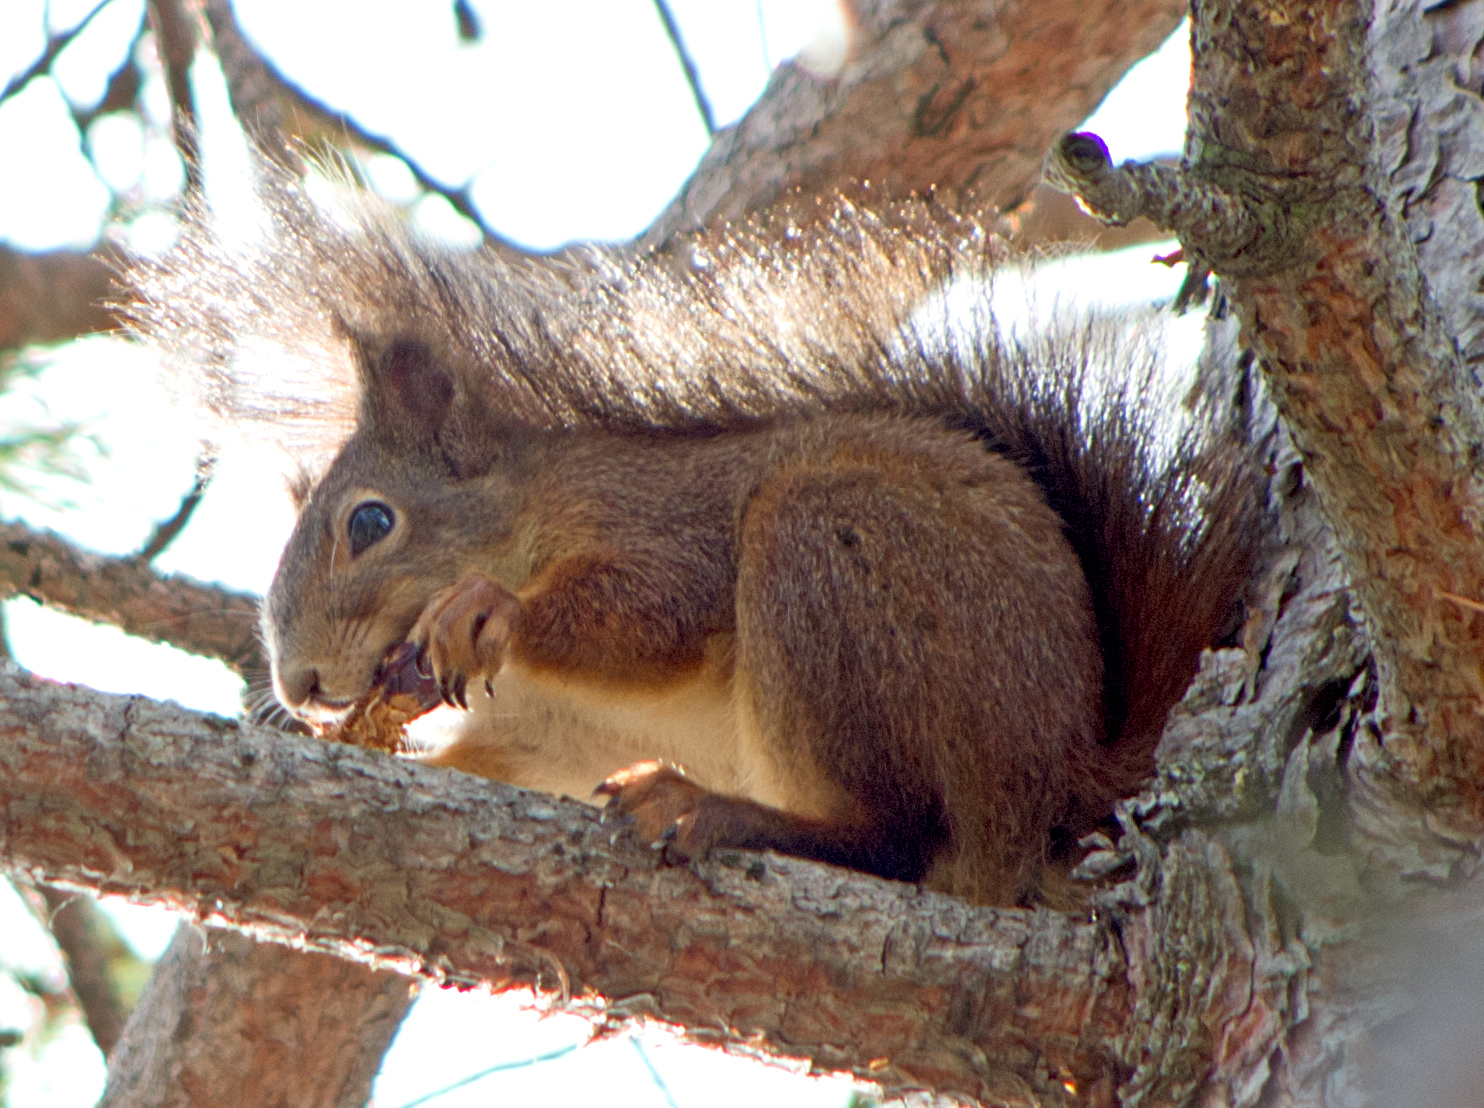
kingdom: Animalia
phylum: Chordata
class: Mammalia
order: Rodentia
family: Sciuridae
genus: Sciurus
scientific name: Sciurus vulgaris
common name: Eurasian red squirrel
